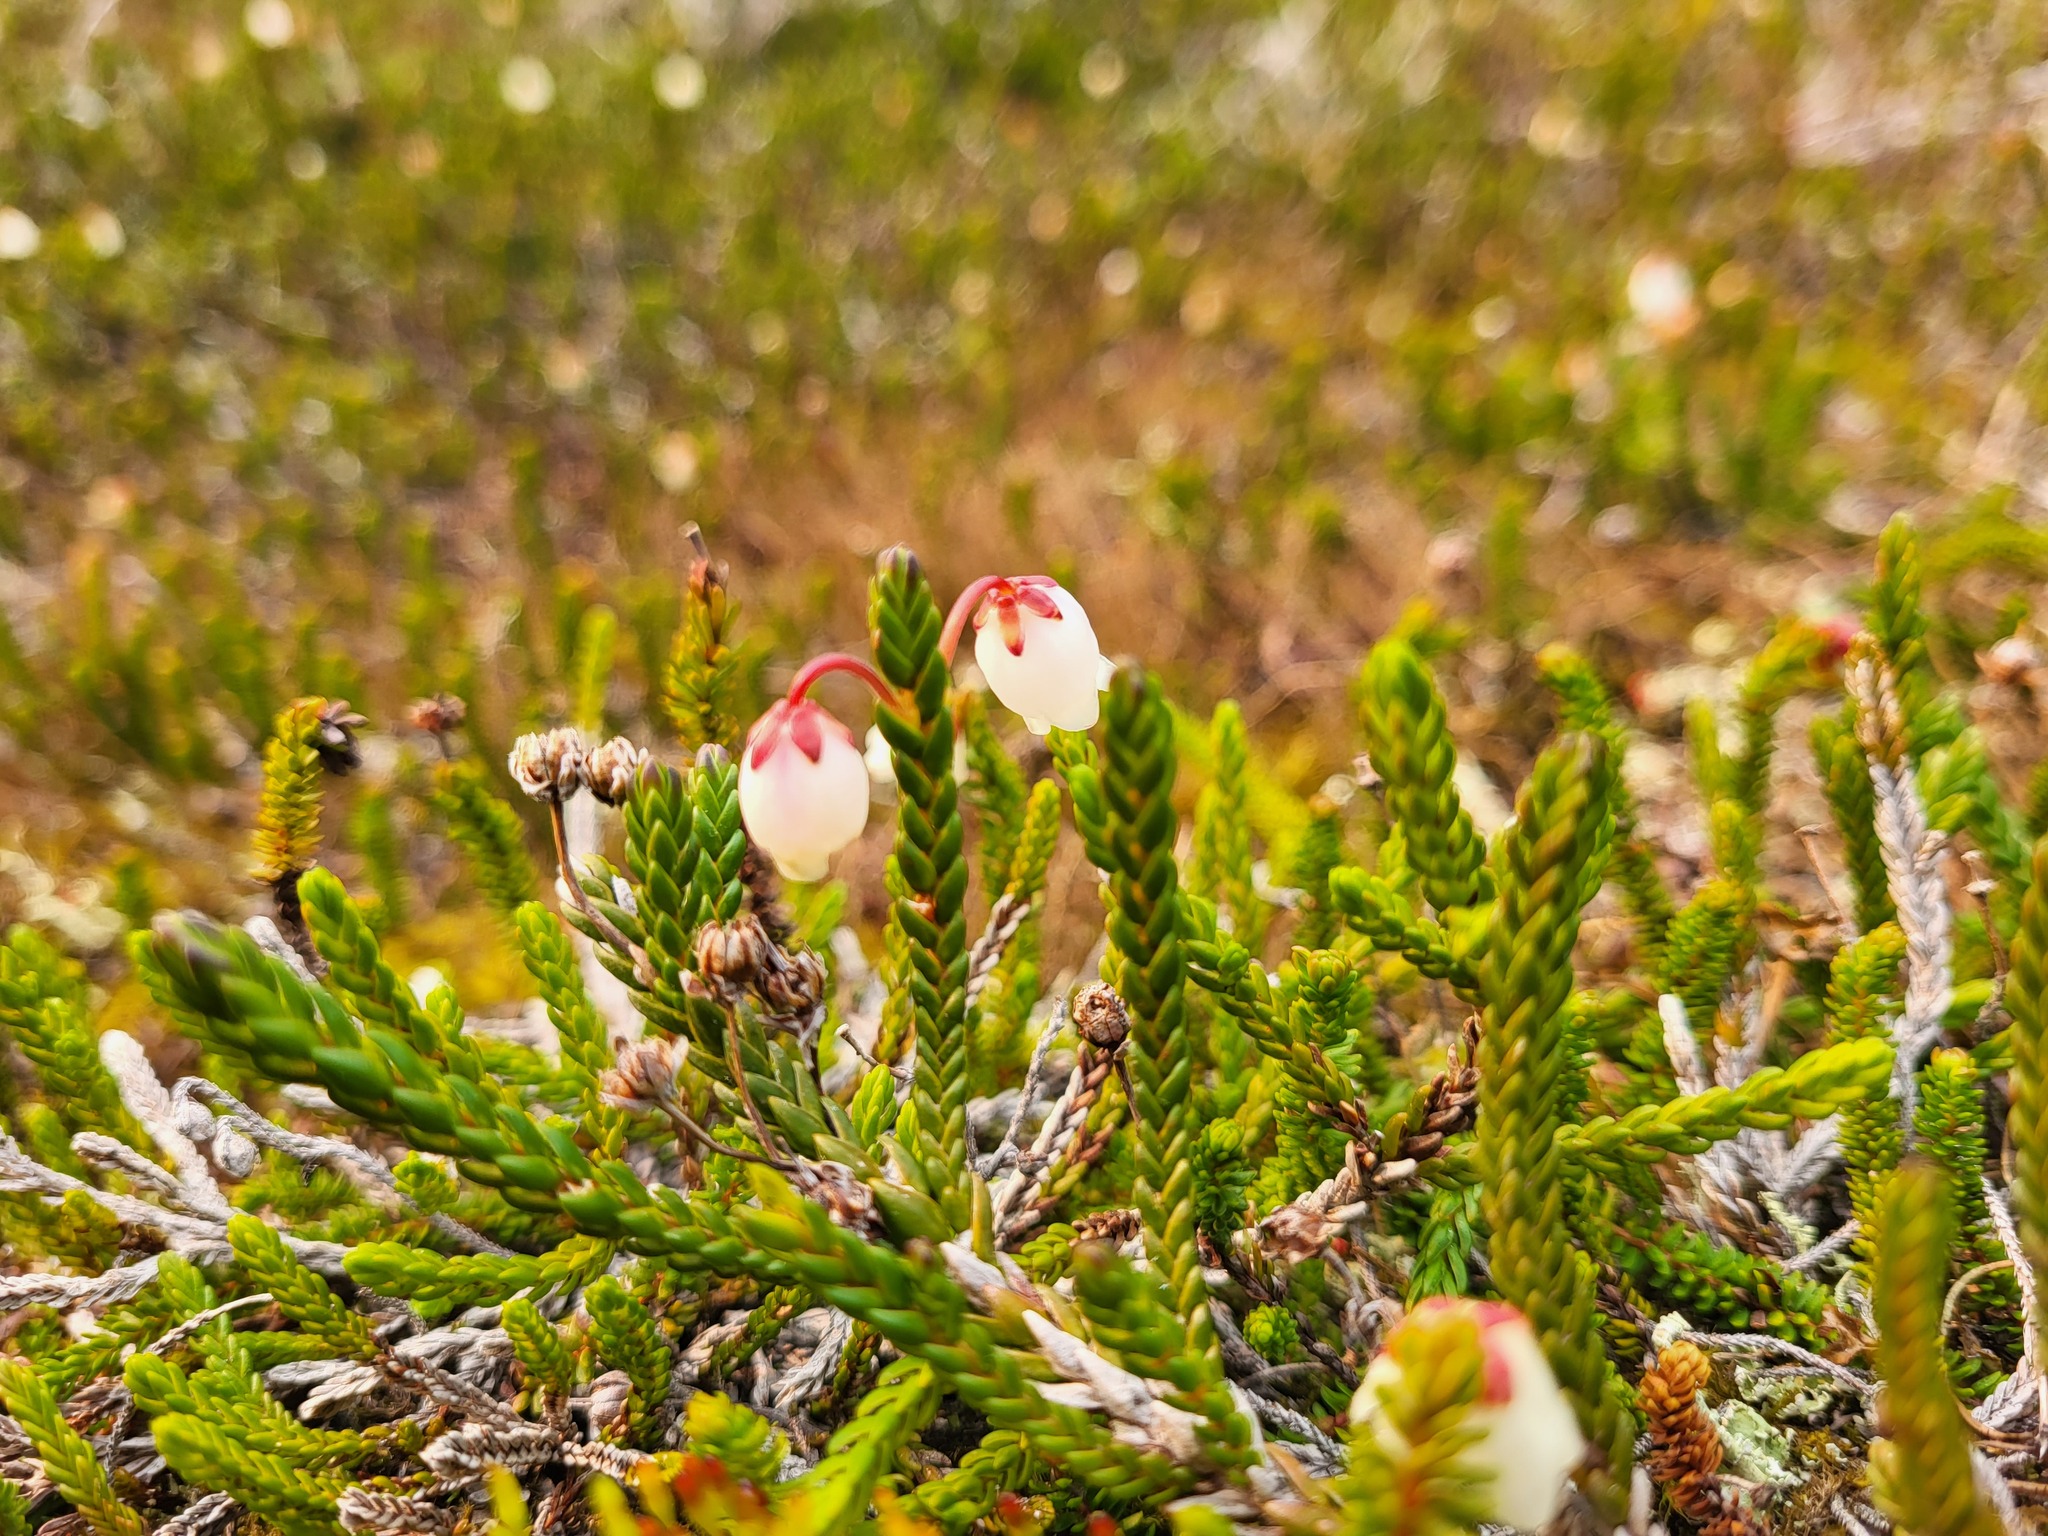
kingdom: Plantae
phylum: Tracheophyta
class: Magnoliopsida
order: Ericales
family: Ericaceae
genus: Cassiope
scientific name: Cassiope mertensiana
